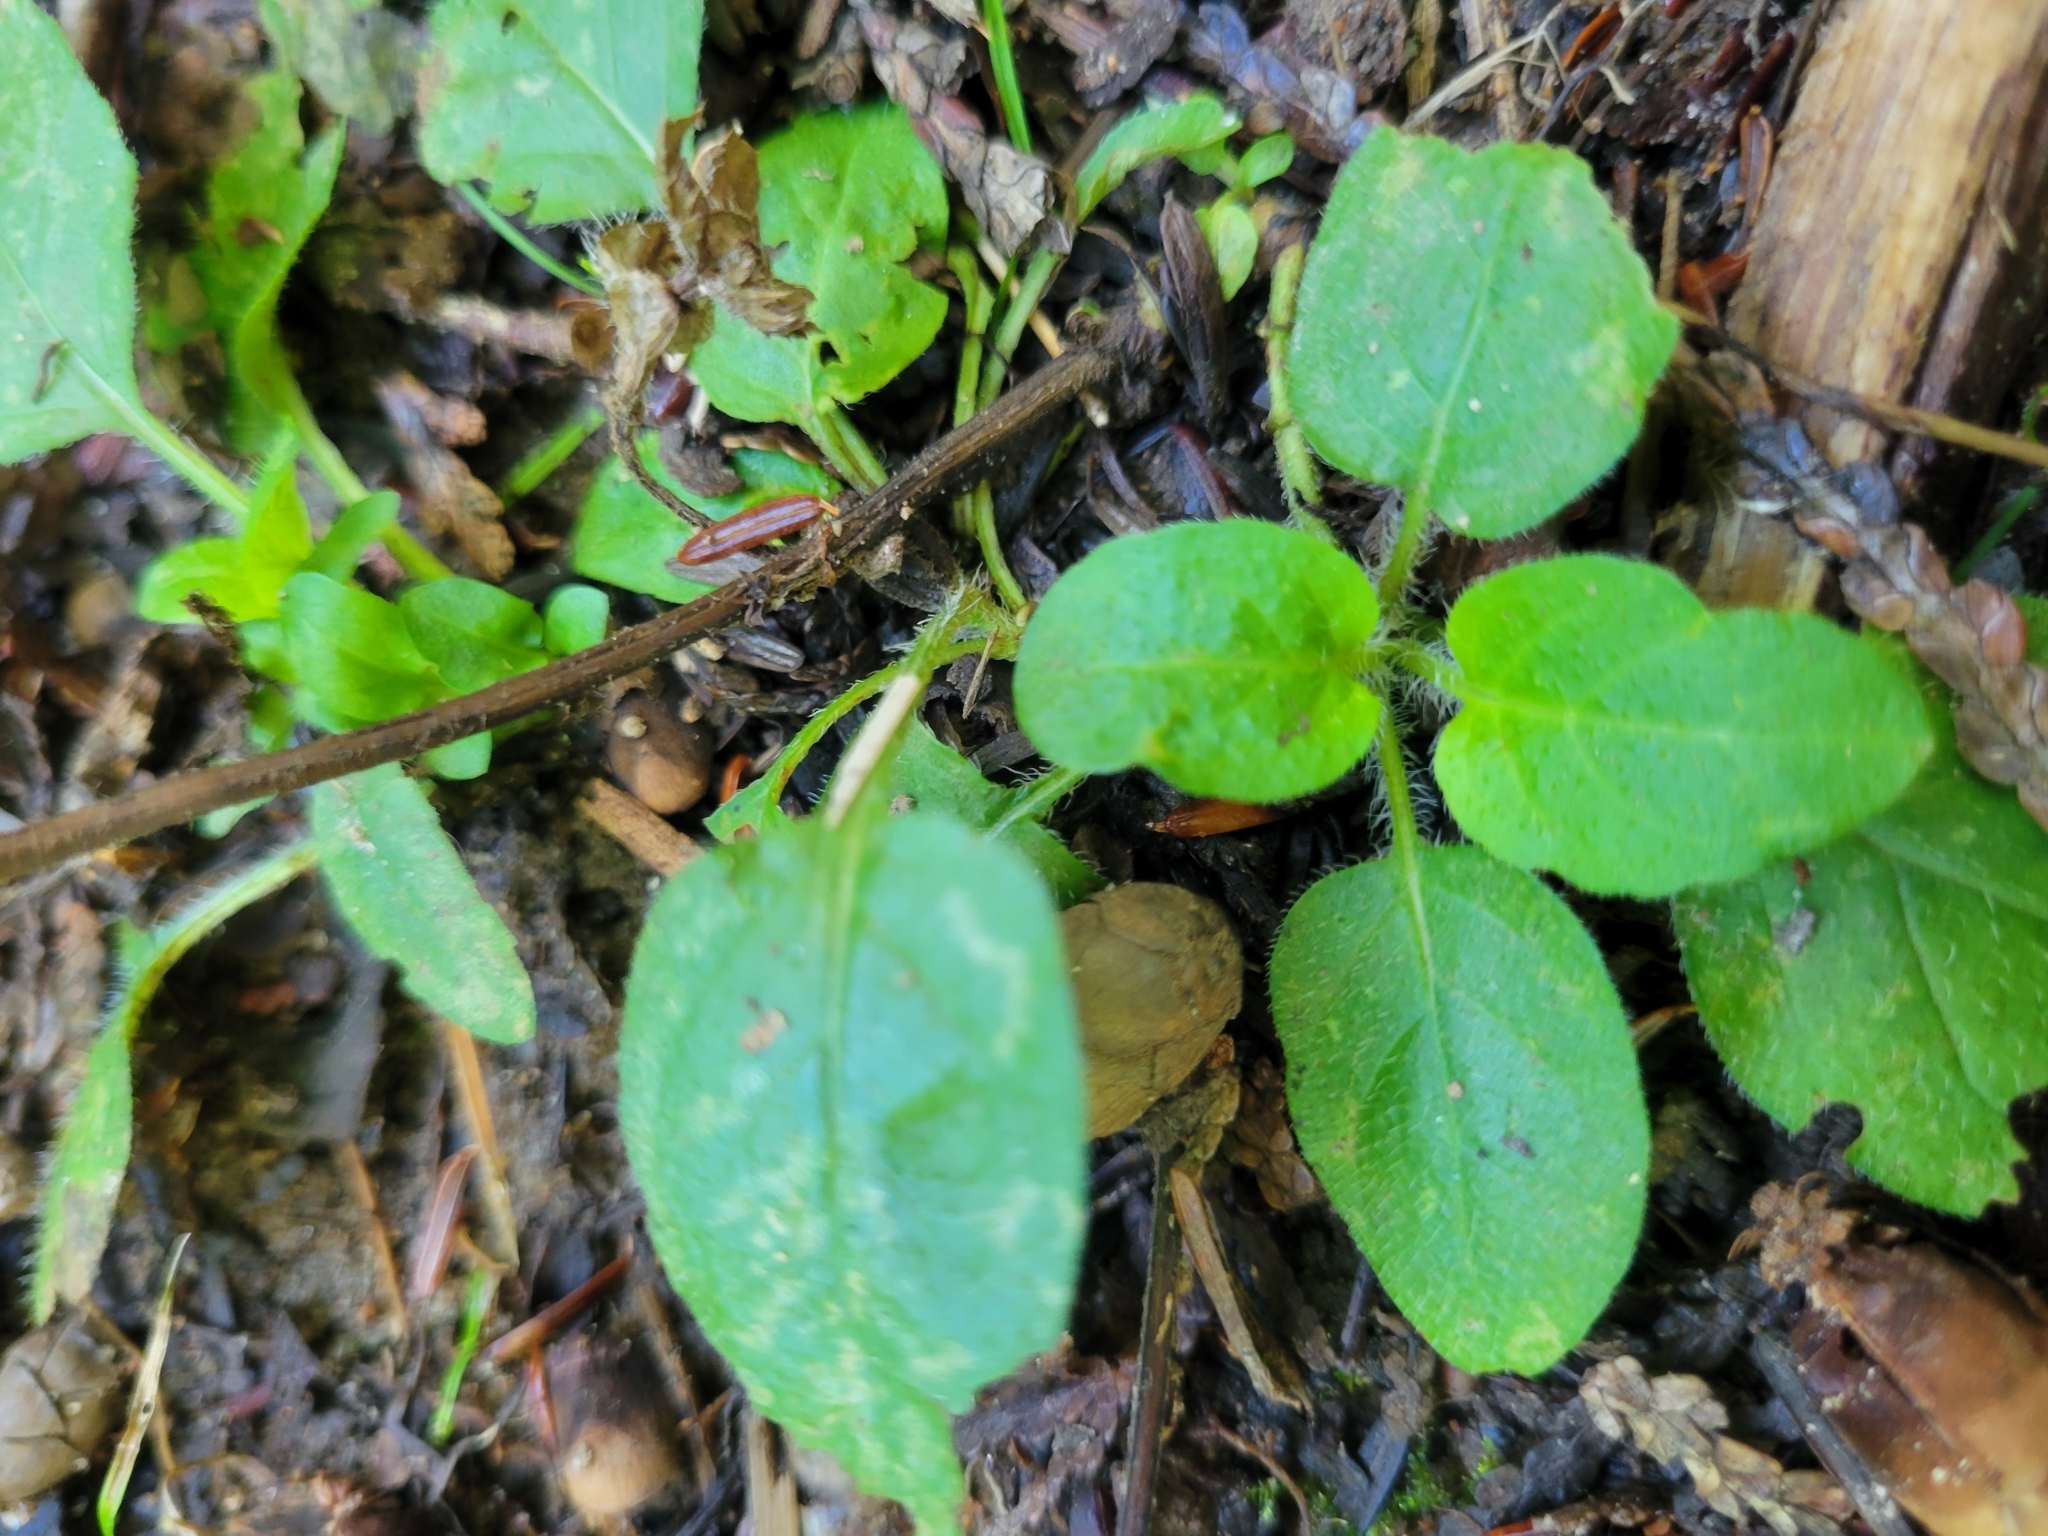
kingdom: Plantae
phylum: Tracheophyta
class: Magnoliopsida
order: Lamiales
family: Lamiaceae
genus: Prunella
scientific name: Prunella vulgaris
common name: Heal-all
